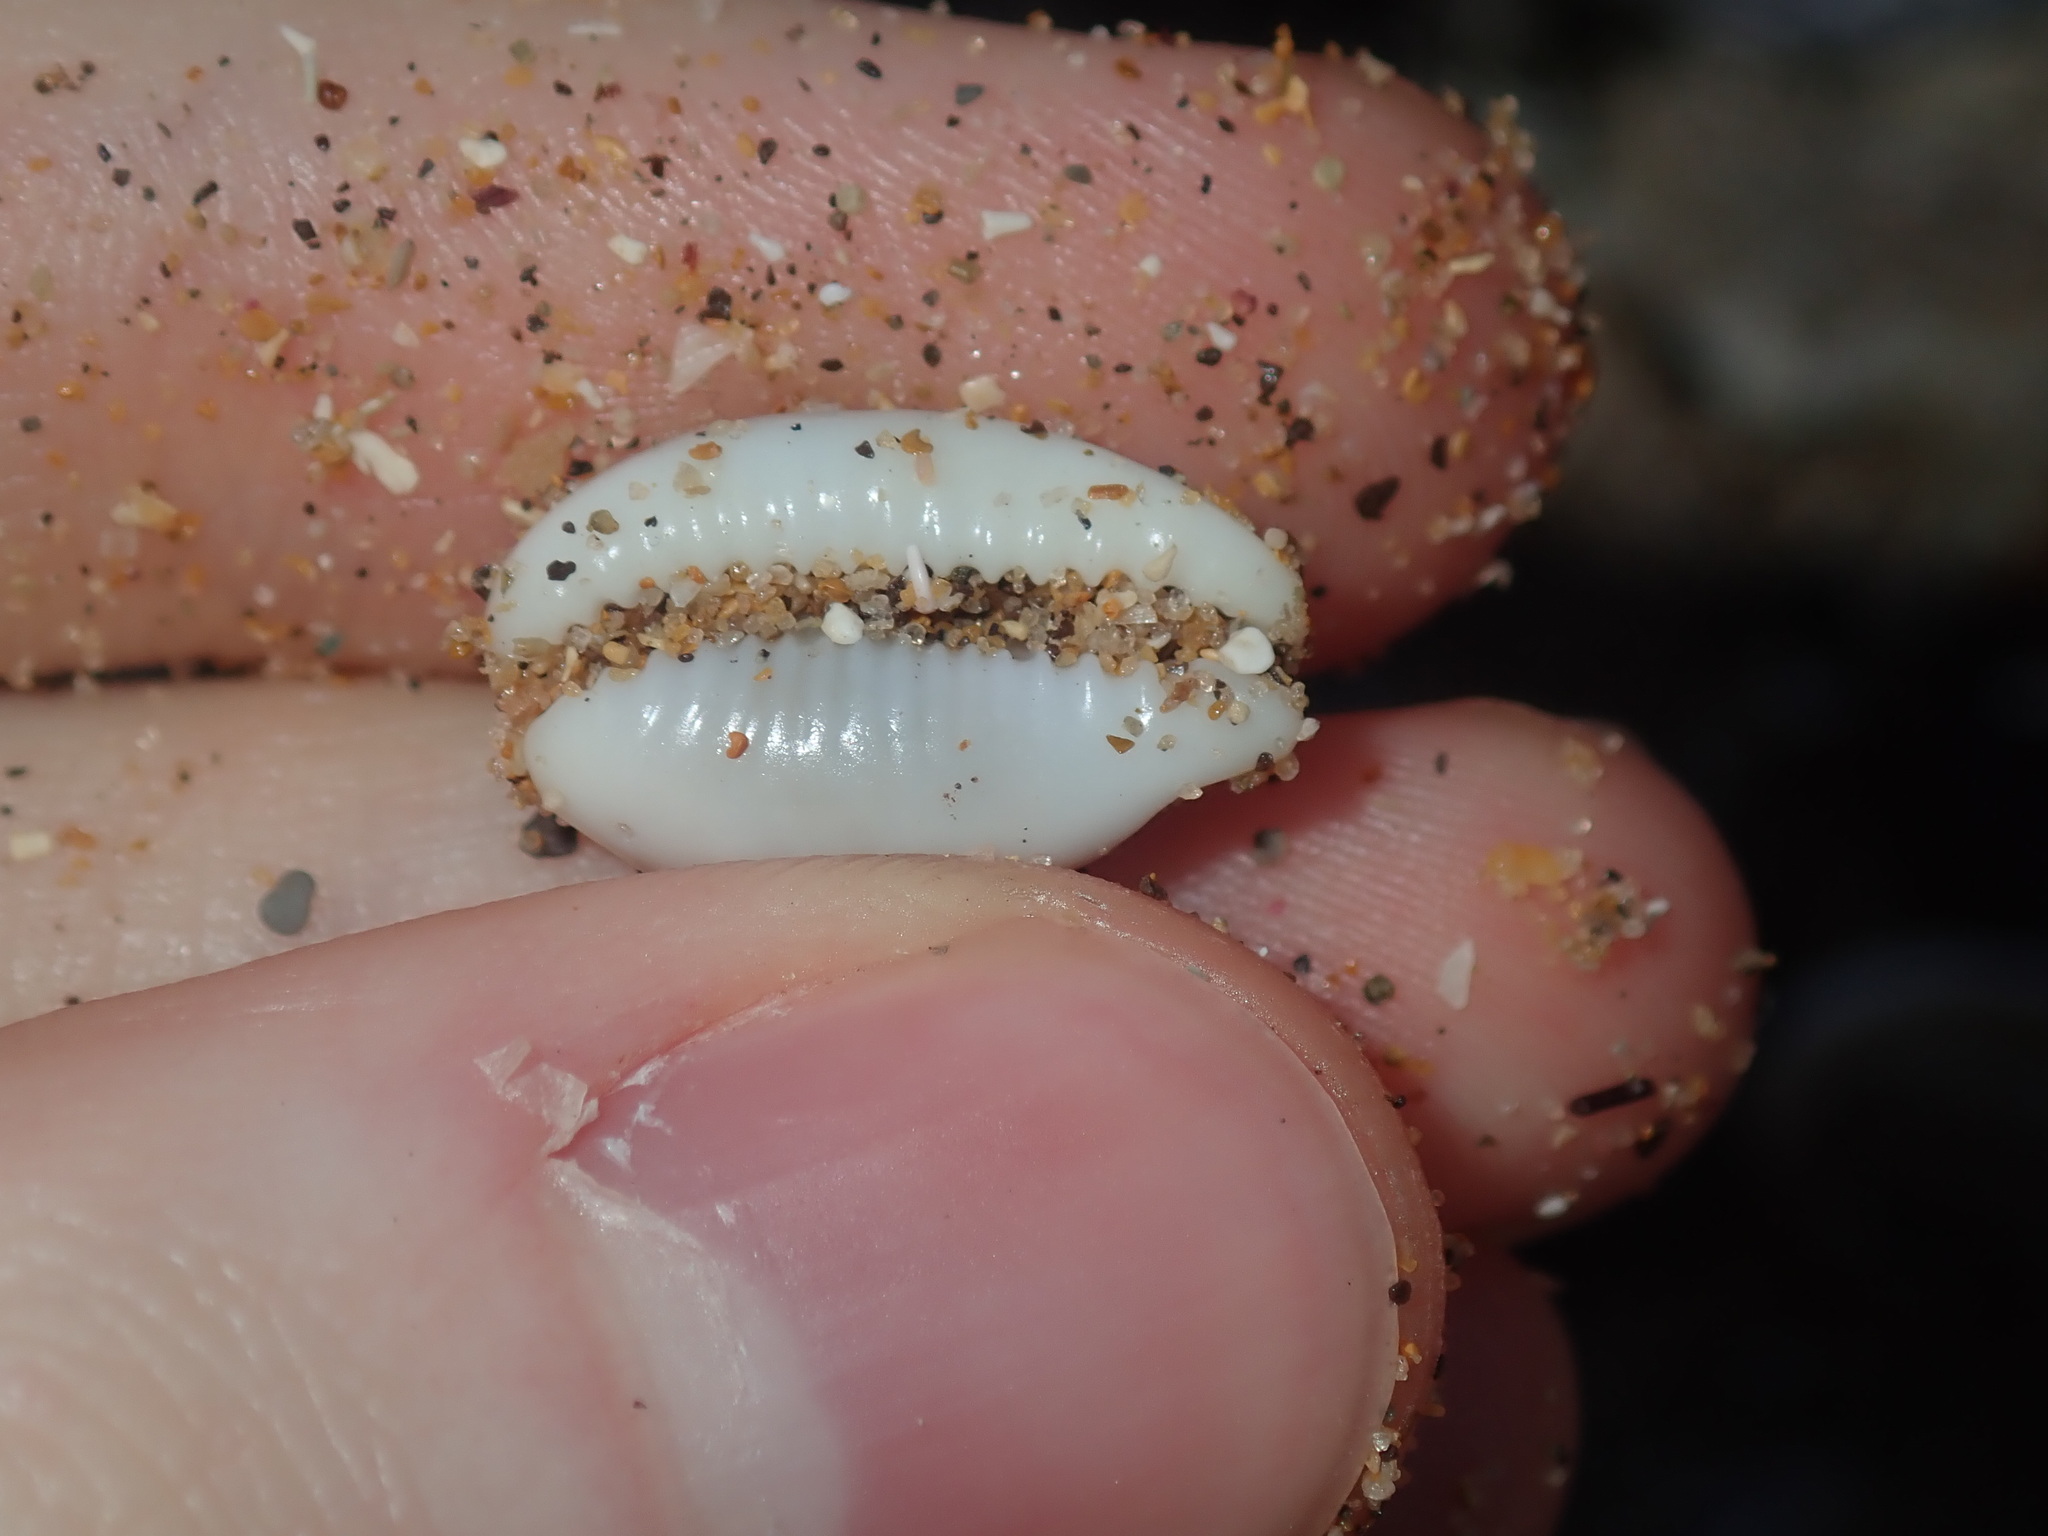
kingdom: Animalia
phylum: Mollusca
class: Gastropoda
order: Littorinimorpha
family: Cypraeidae
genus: Palmadusta
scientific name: Palmadusta clandestina
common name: Cowrie
